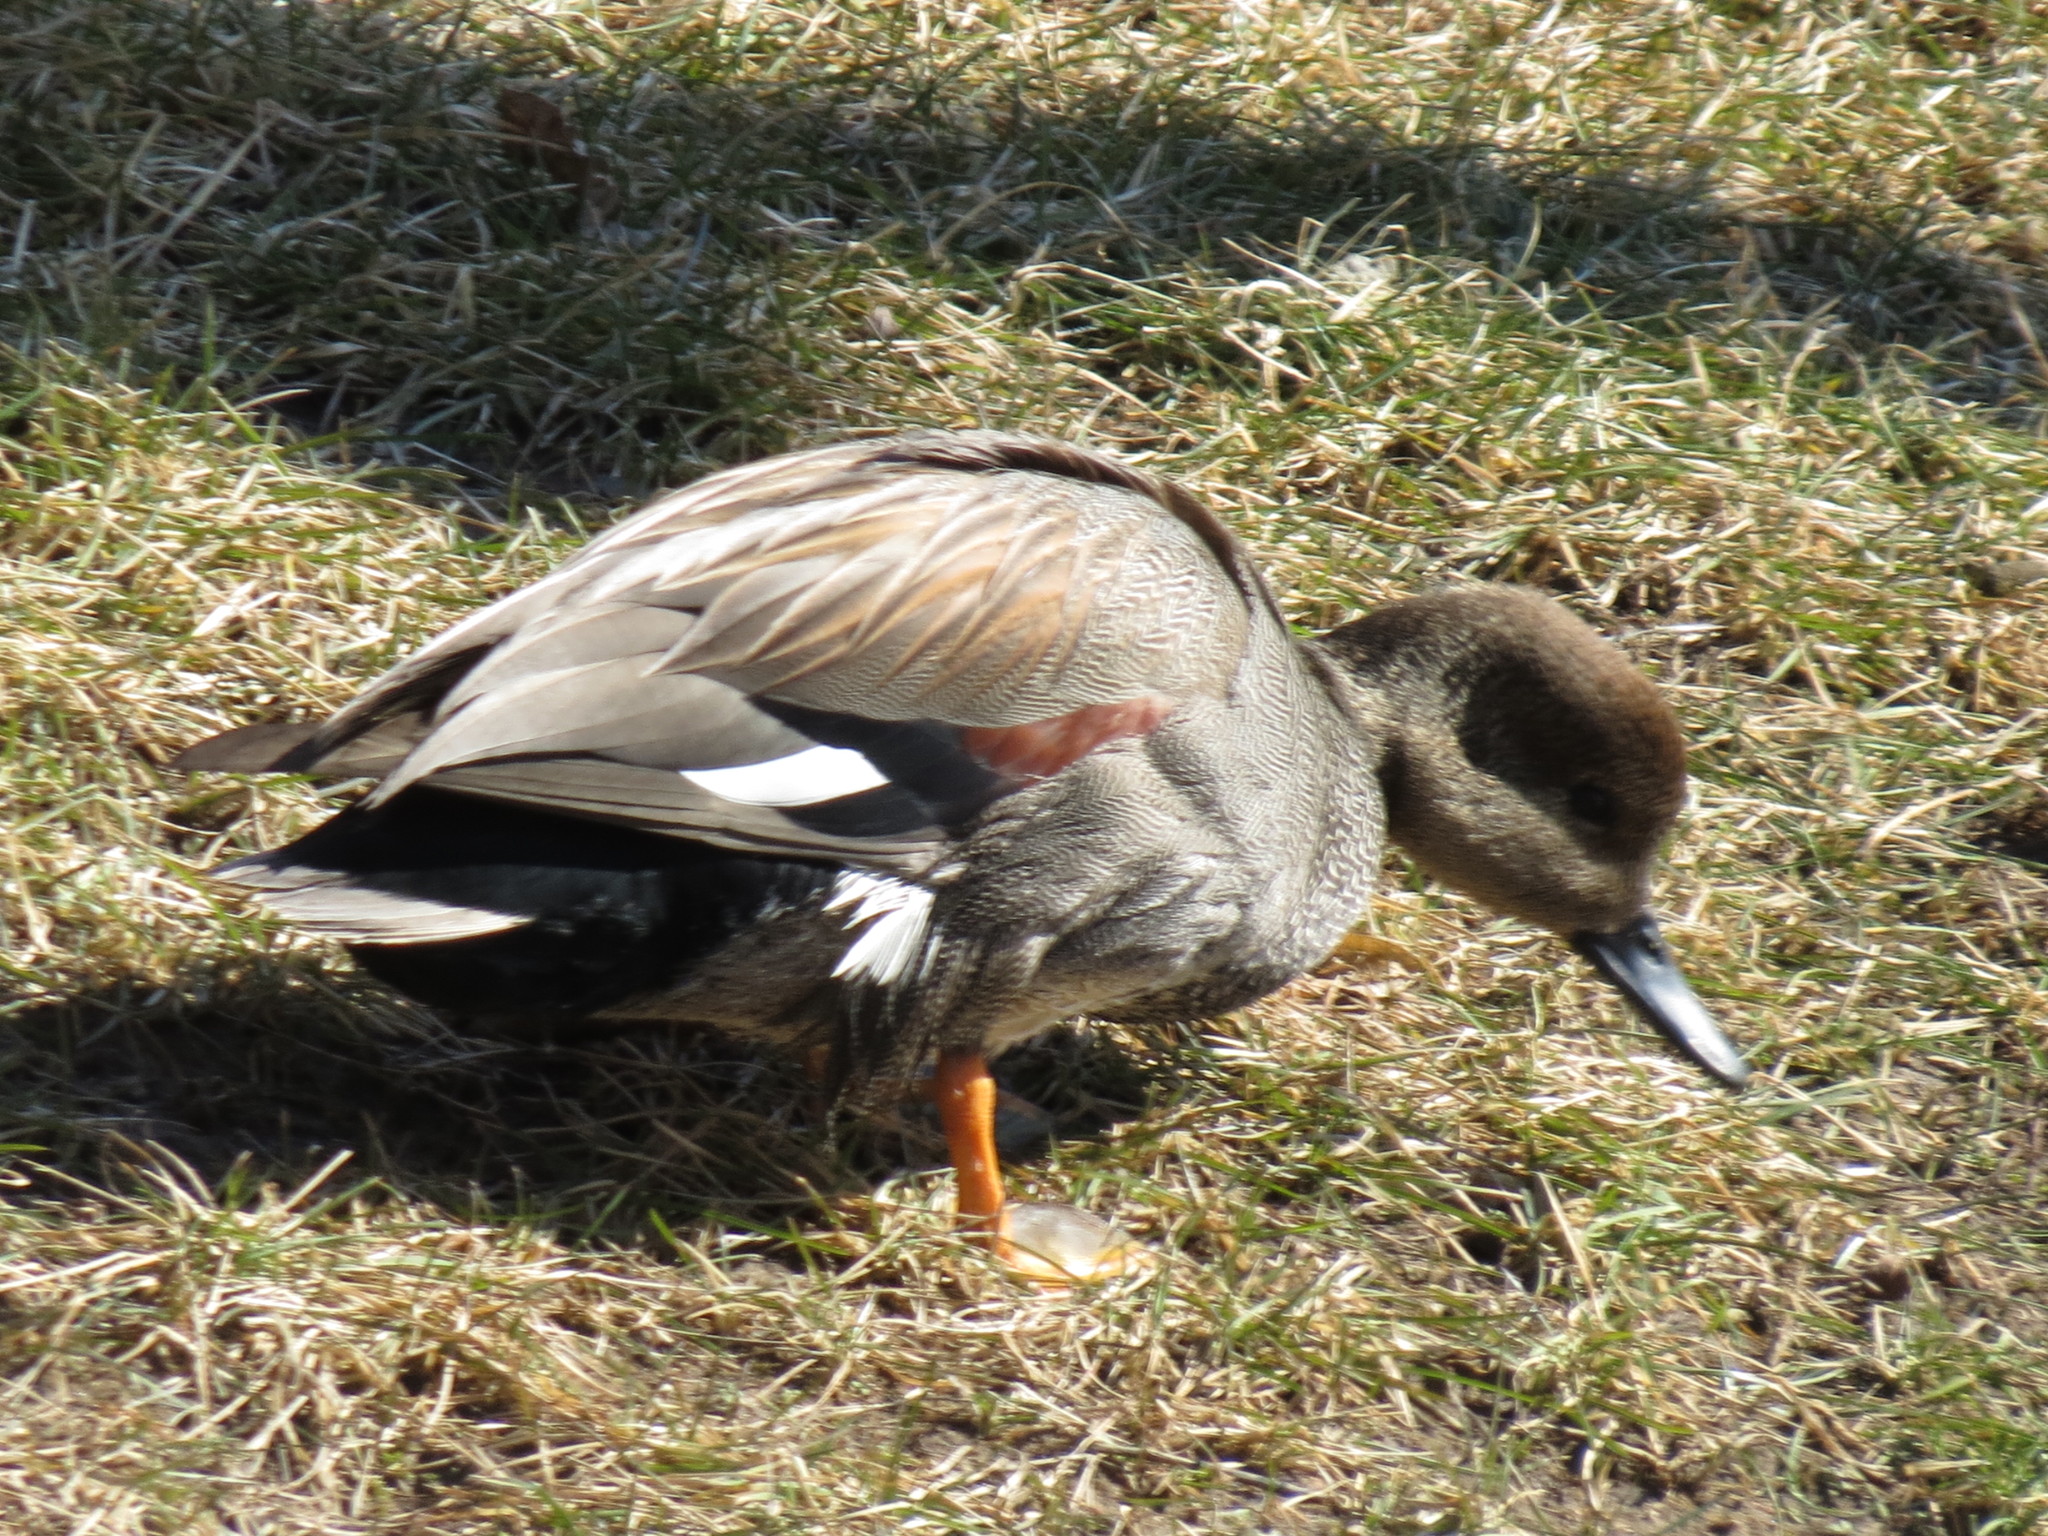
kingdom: Animalia
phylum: Chordata
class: Aves
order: Anseriformes
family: Anatidae
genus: Mareca
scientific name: Mareca strepera
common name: Gadwall
